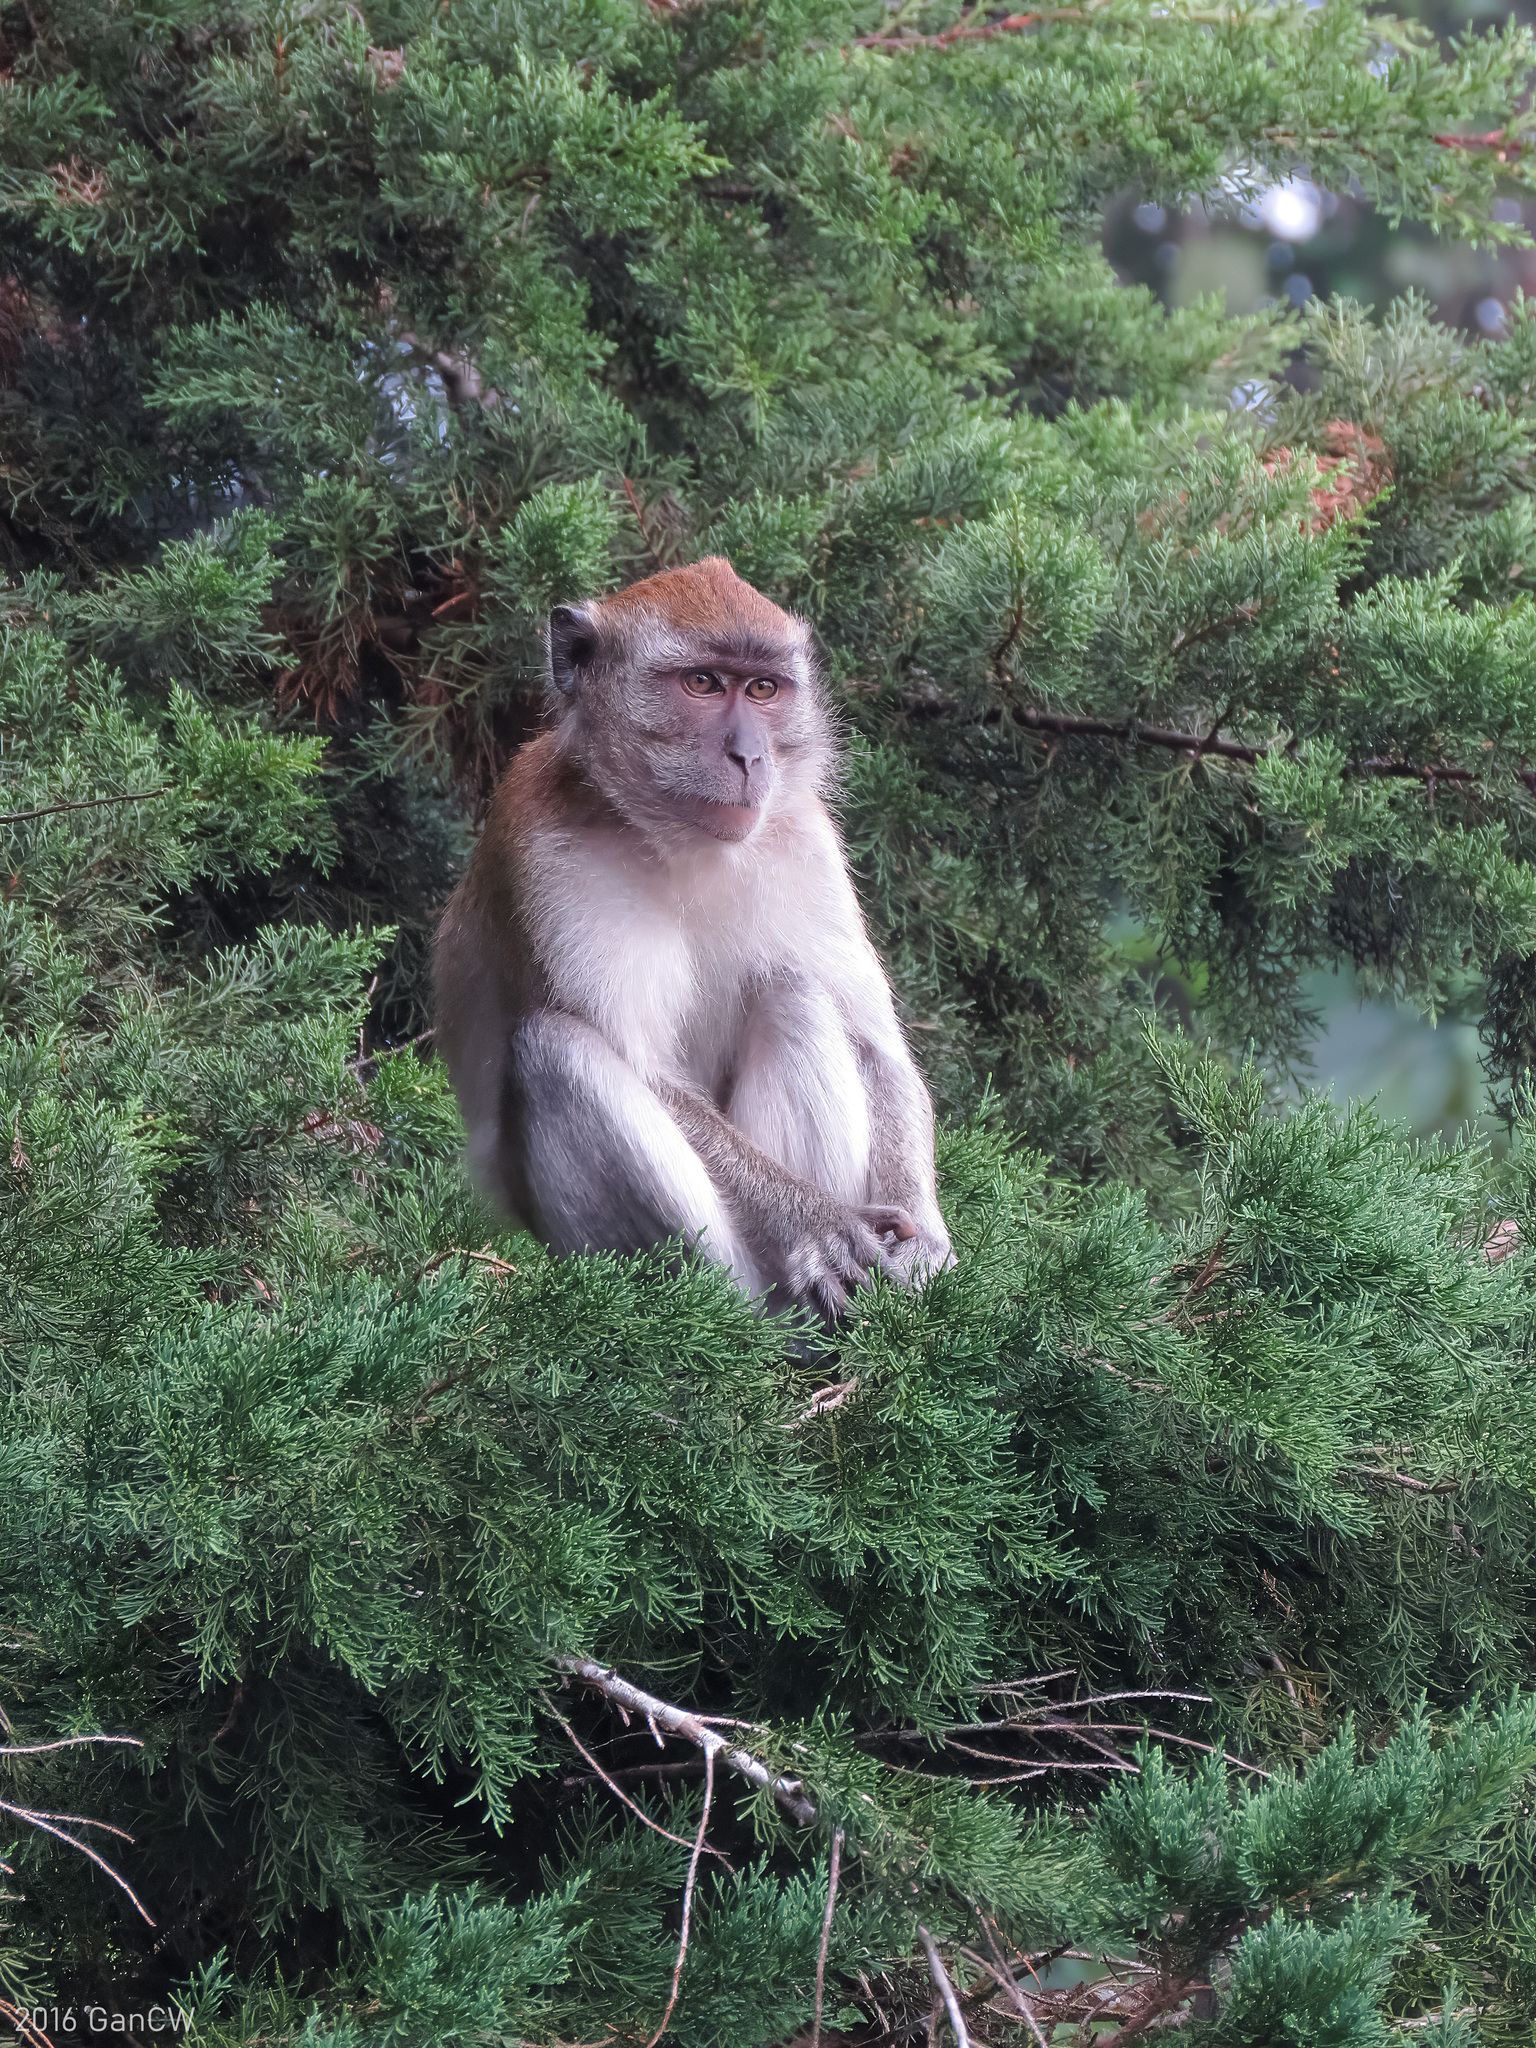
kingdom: Animalia
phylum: Chordata
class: Mammalia
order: Primates
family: Cercopithecidae
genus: Macaca
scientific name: Macaca fascicularis
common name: Crab-eating macaque
